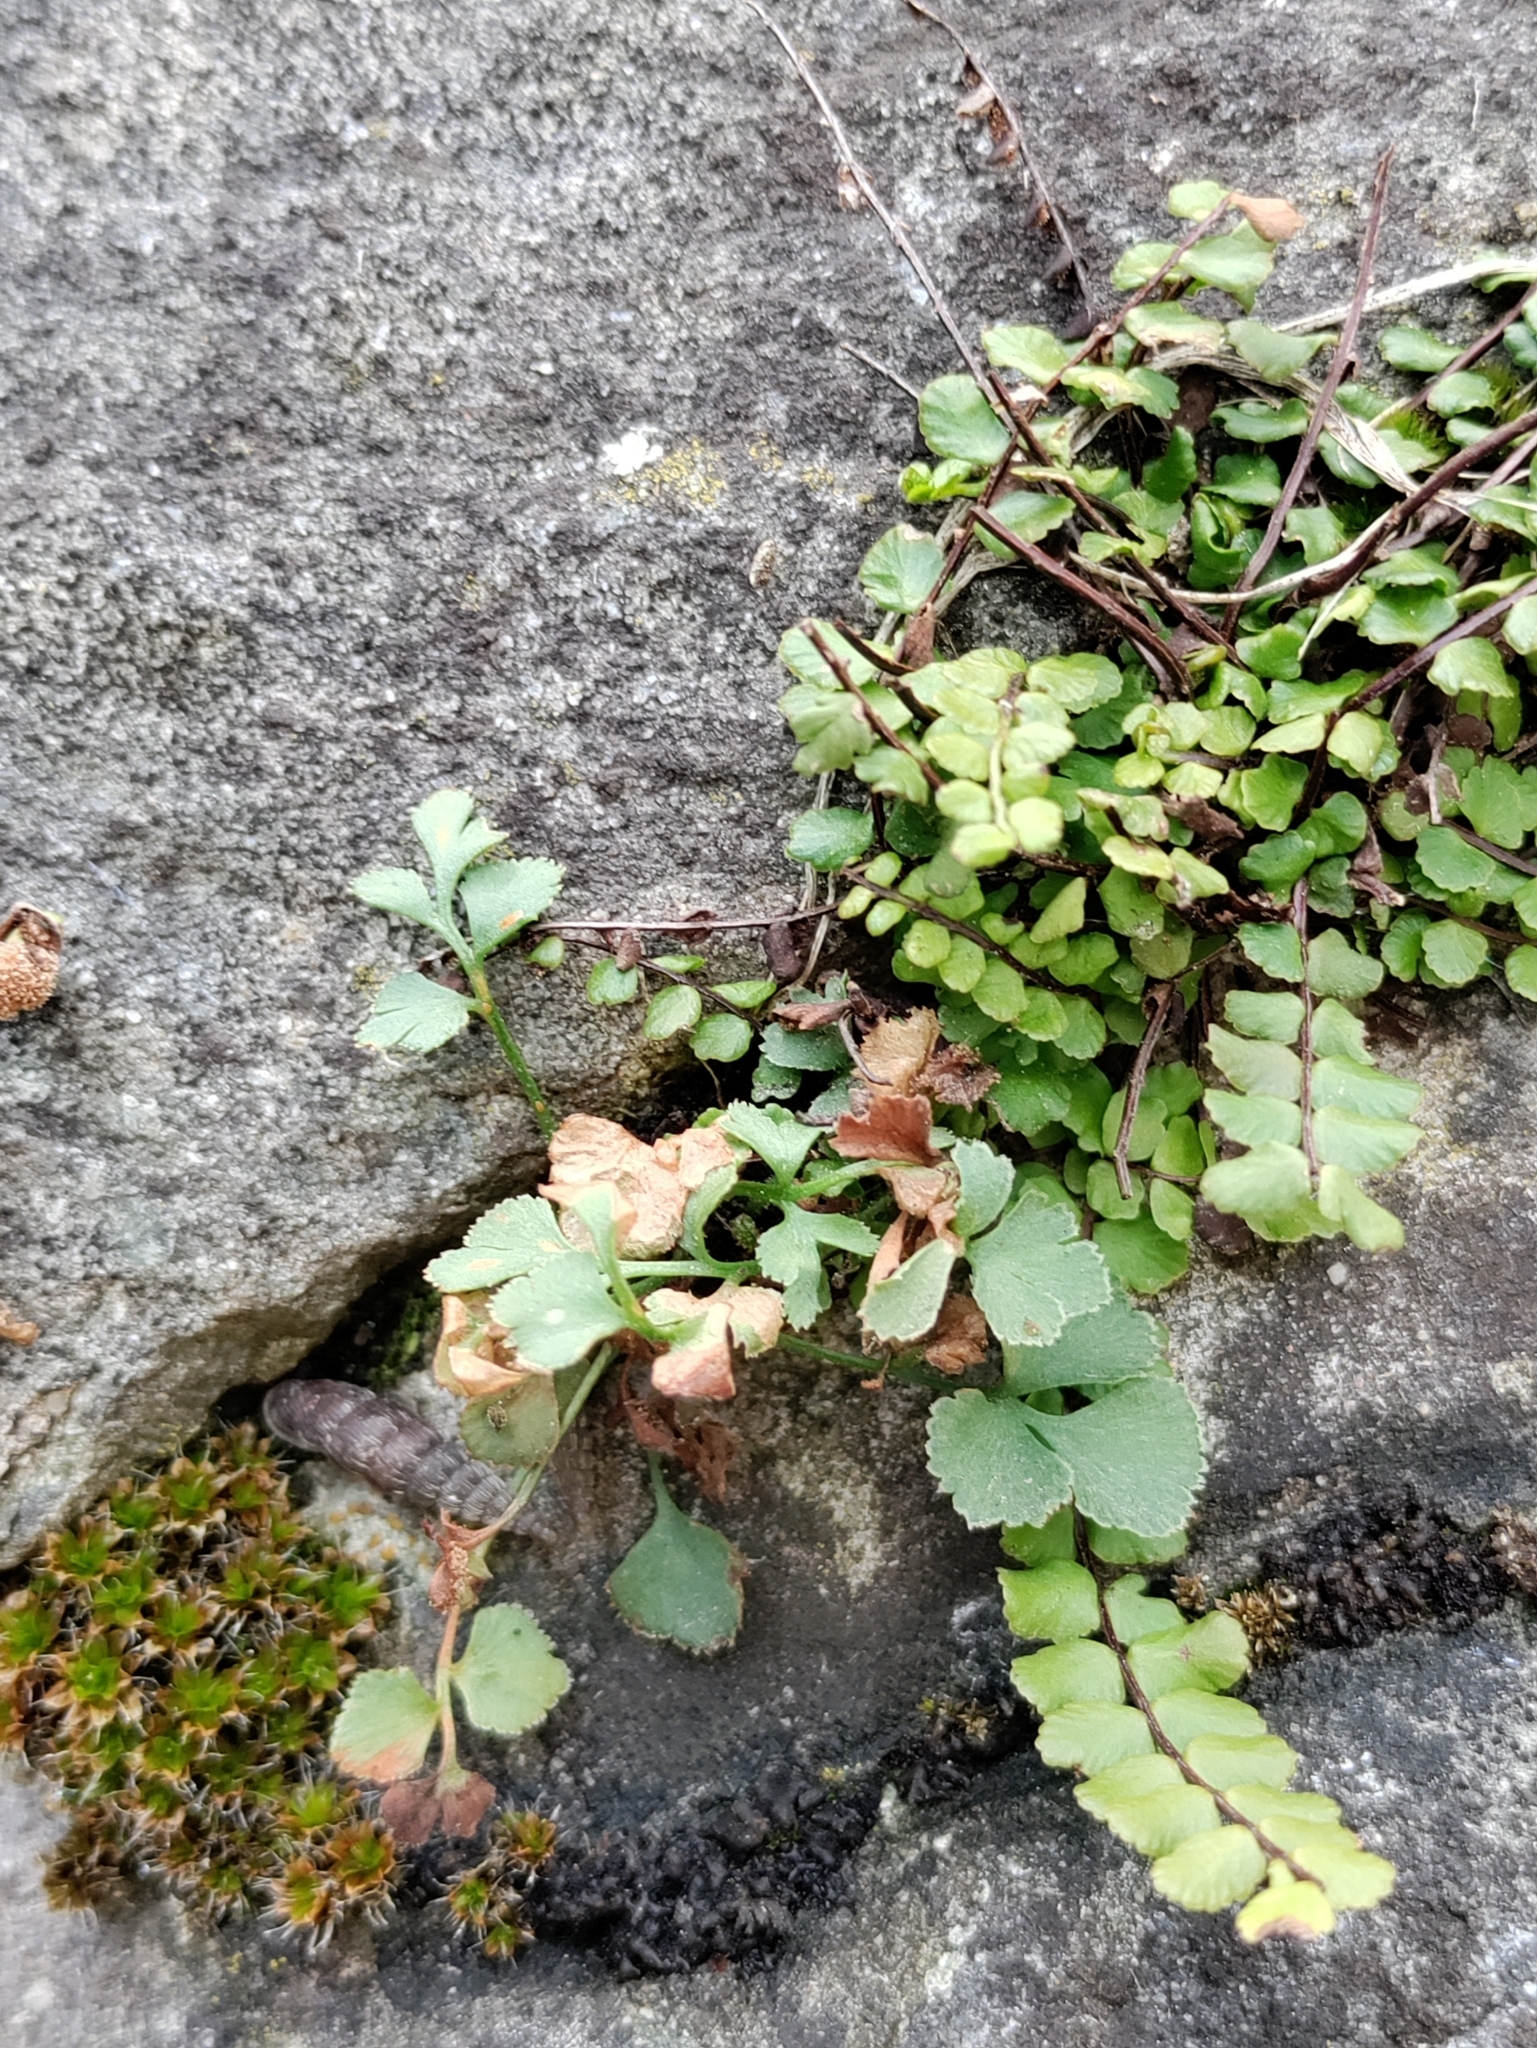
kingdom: Plantae
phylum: Tracheophyta
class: Polypodiopsida
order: Polypodiales
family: Aspleniaceae
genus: Asplenium
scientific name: Asplenium ruta-muraria
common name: Wall-rue
